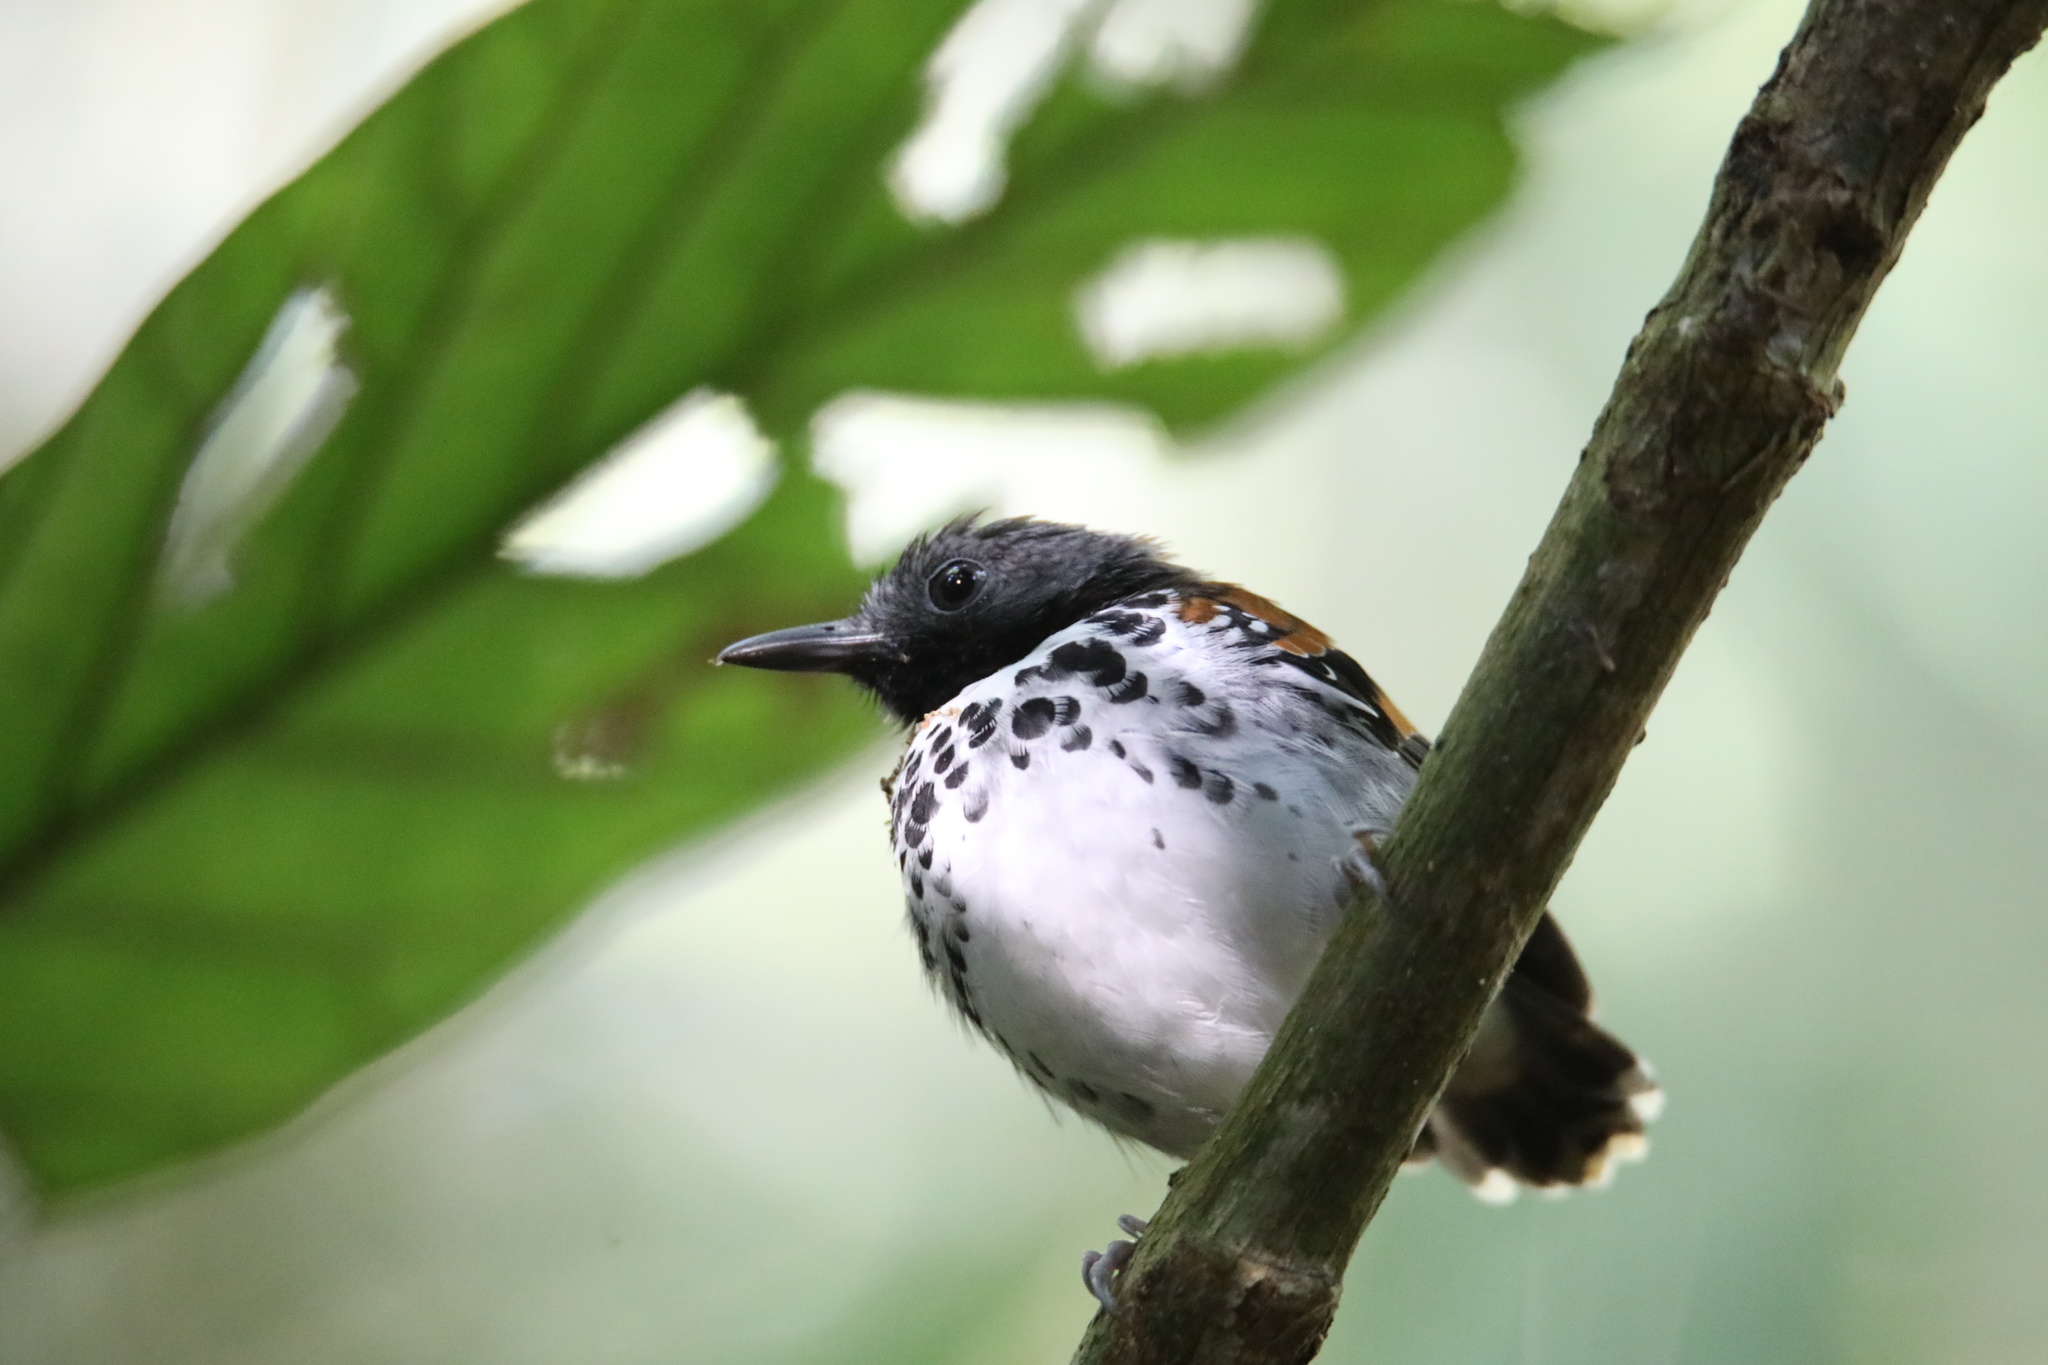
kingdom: Animalia
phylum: Chordata
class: Aves
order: Passeriformes
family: Thamnophilidae
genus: Hylophylax
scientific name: Hylophylax naevioides
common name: Spotted antbird
